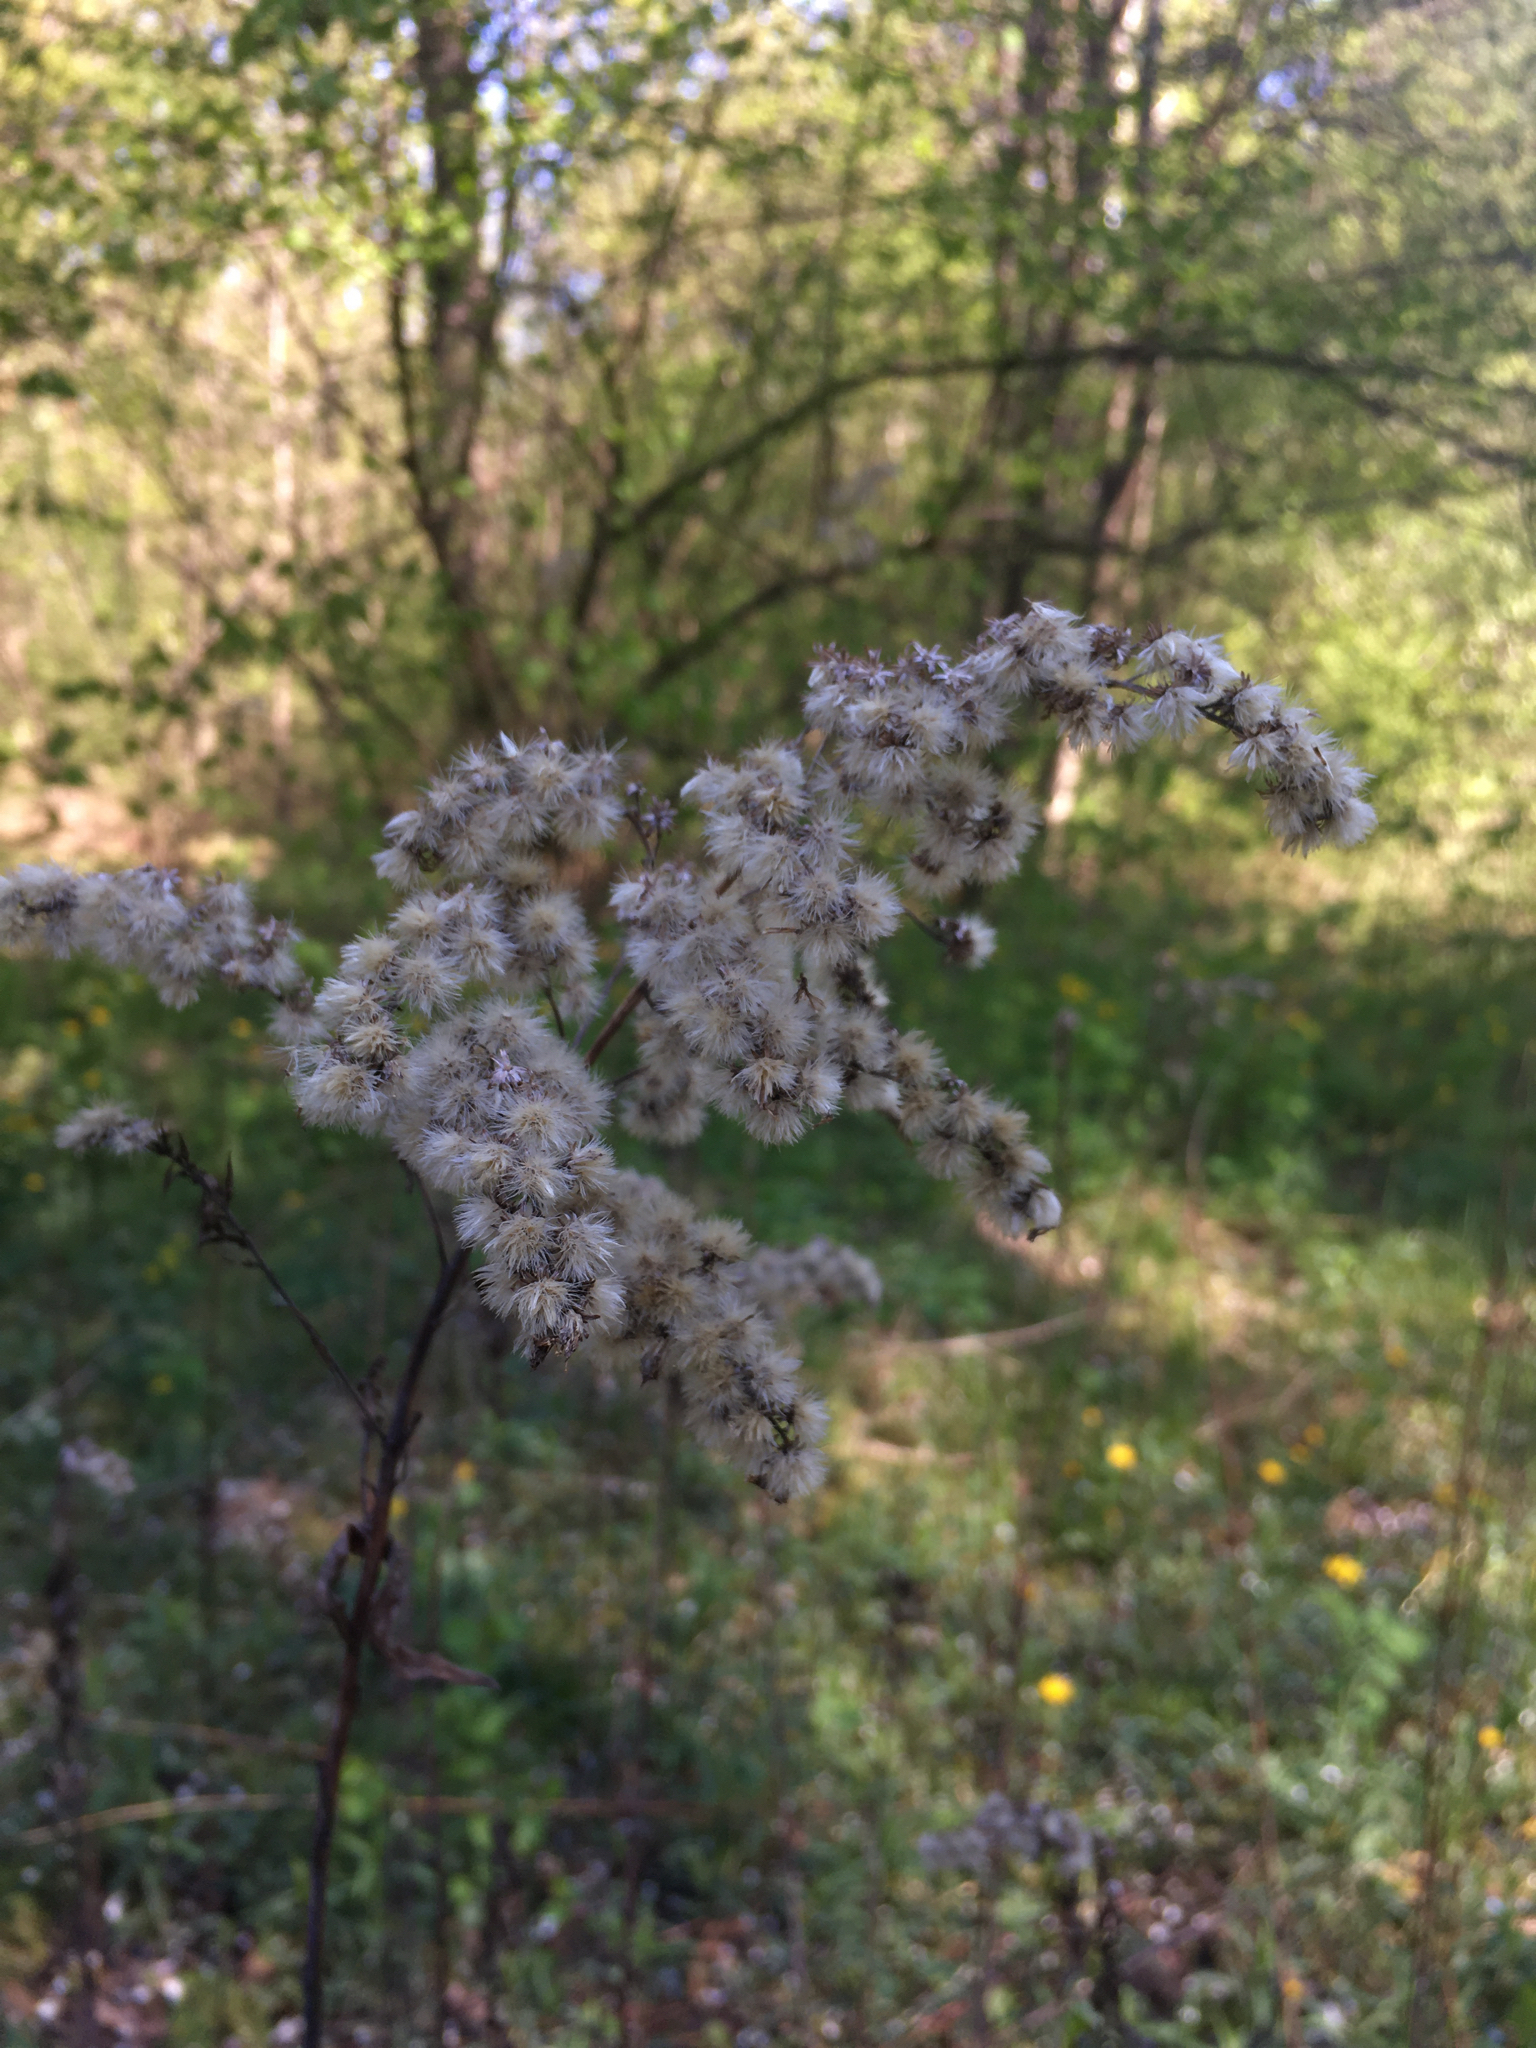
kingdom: Plantae
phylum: Tracheophyta
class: Magnoliopsida
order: Asterales
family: Asteraceae
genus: Solidago
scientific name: Solidago
